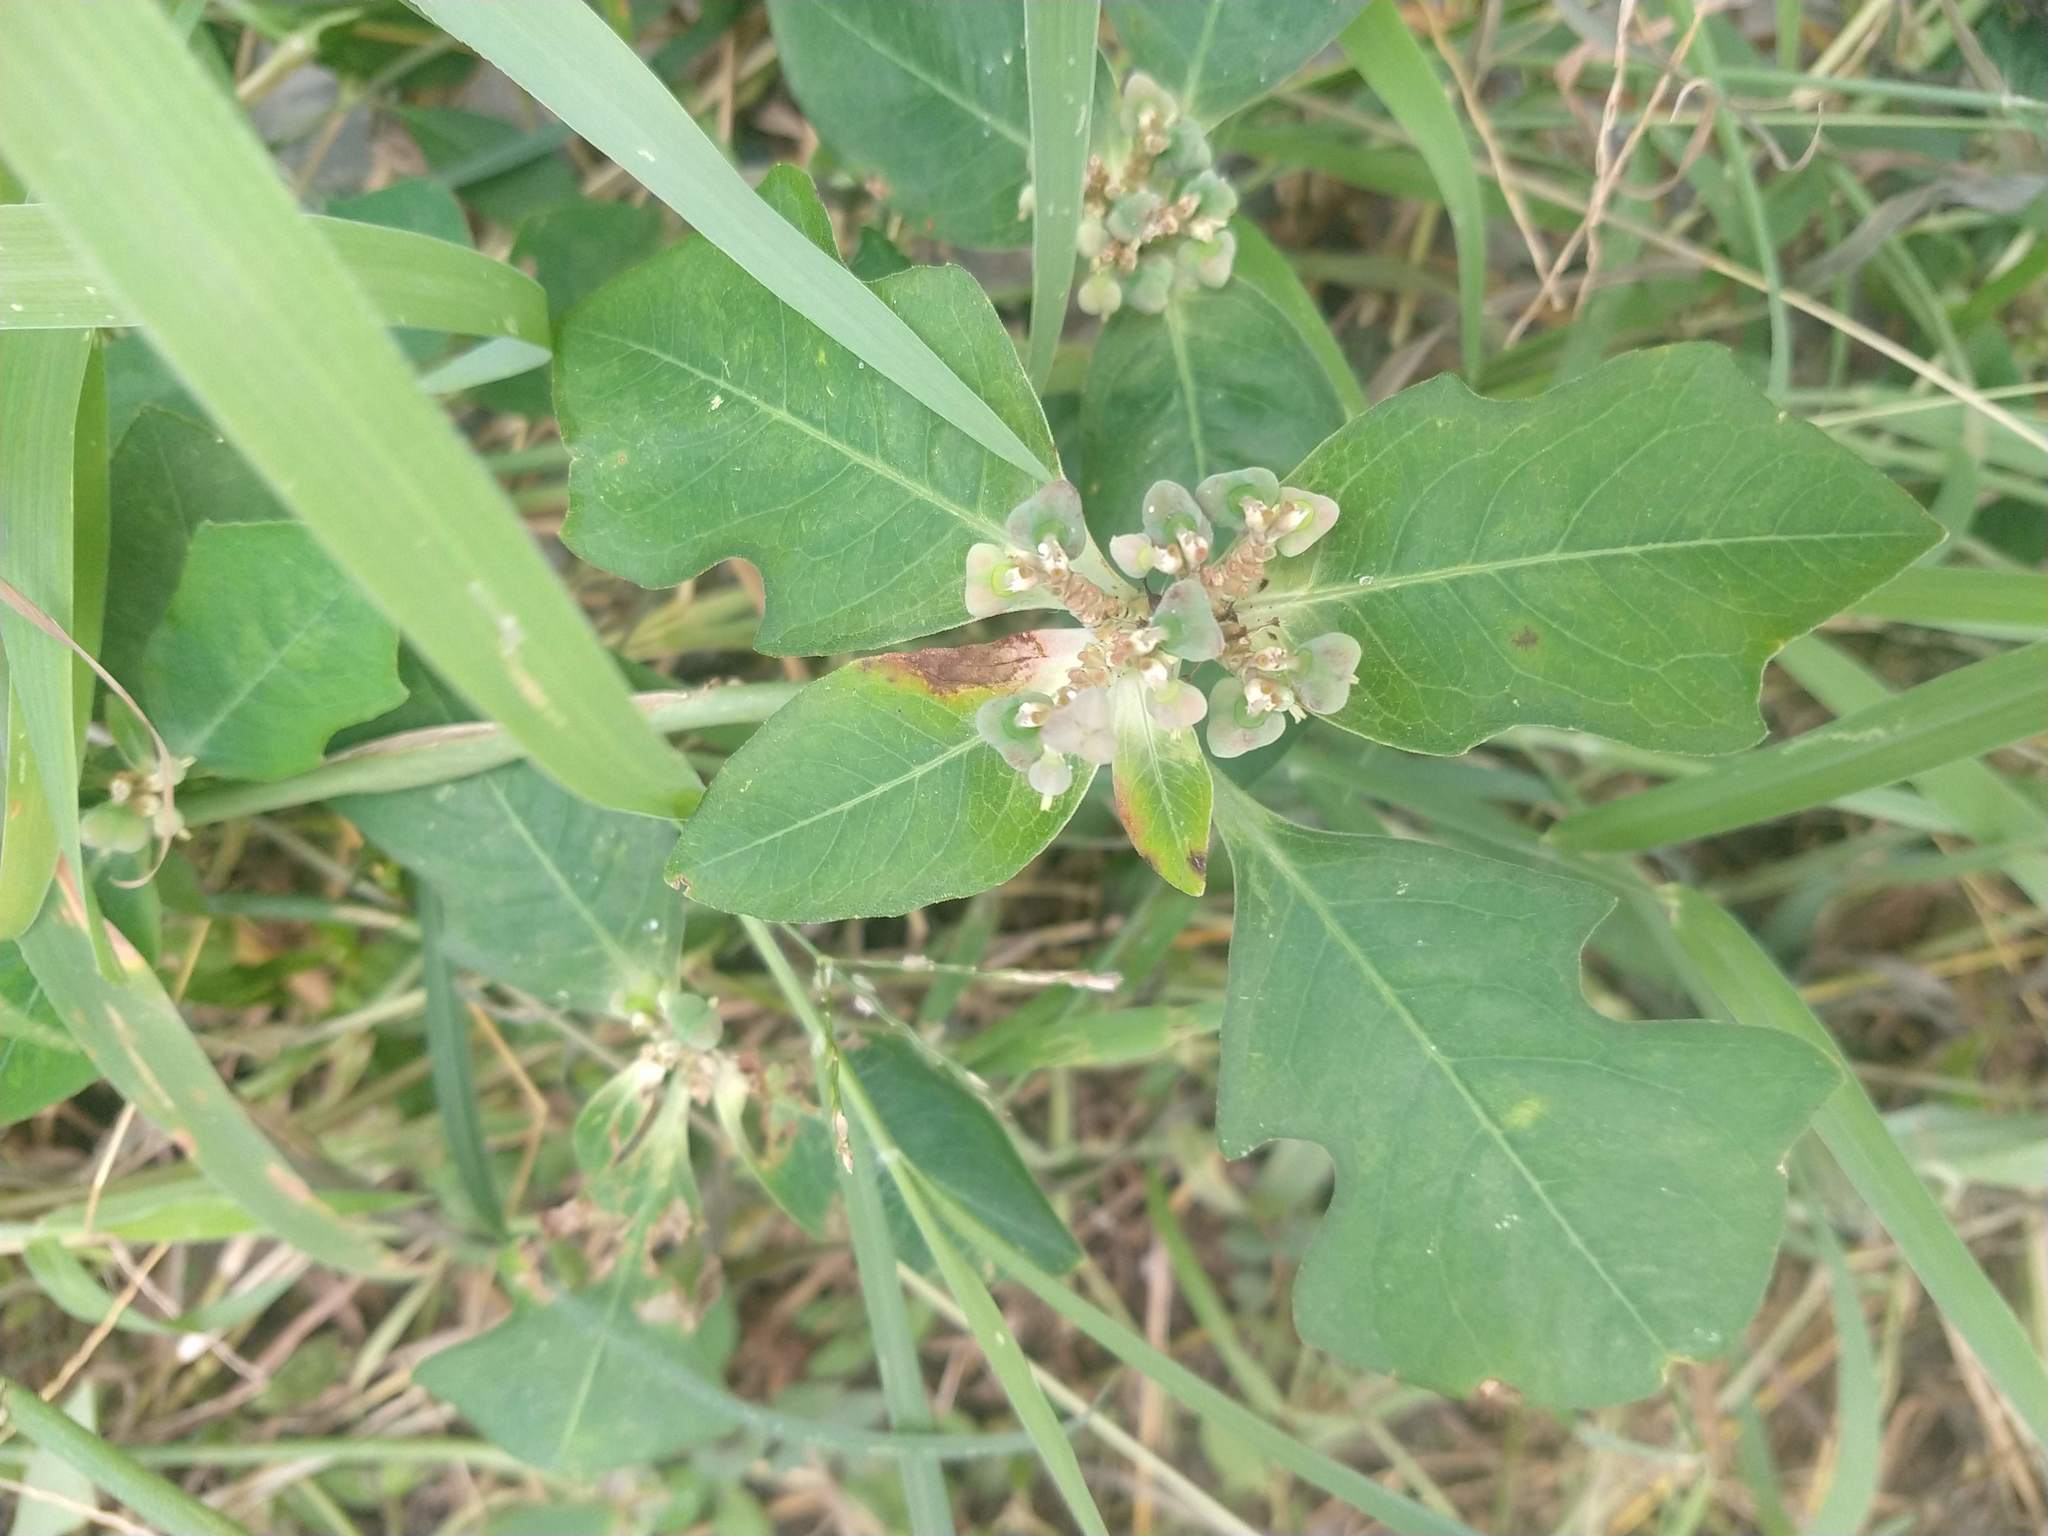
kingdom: Plantae
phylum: Tracheophyta
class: Magnoliopsida
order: Malpighiales
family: Euphorbiaceae
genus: Euphorbia
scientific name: Euphorbia heterophylla
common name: Mexican fireplant
